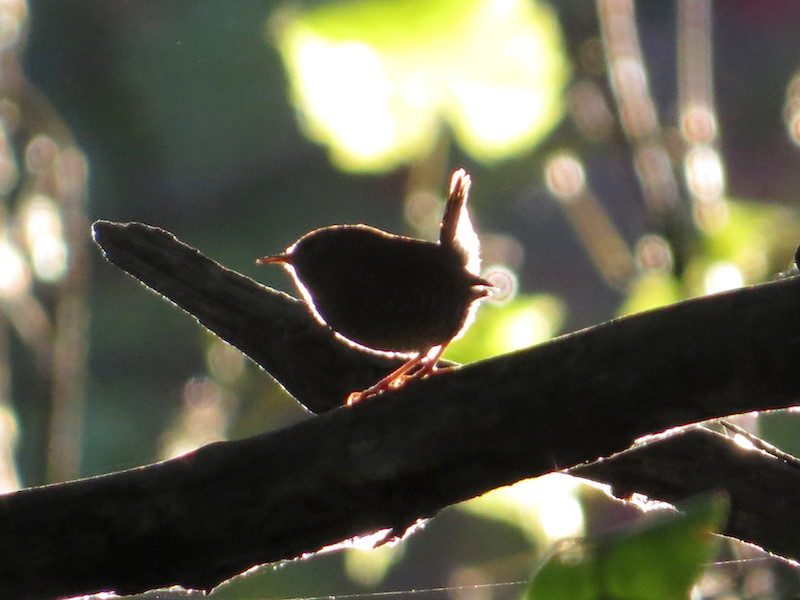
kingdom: Animalia
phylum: Chordata
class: Aves
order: Passeriformes
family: Troglodytidae
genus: Troglodytes
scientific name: Troglodytes hiemalis
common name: Winter wren
